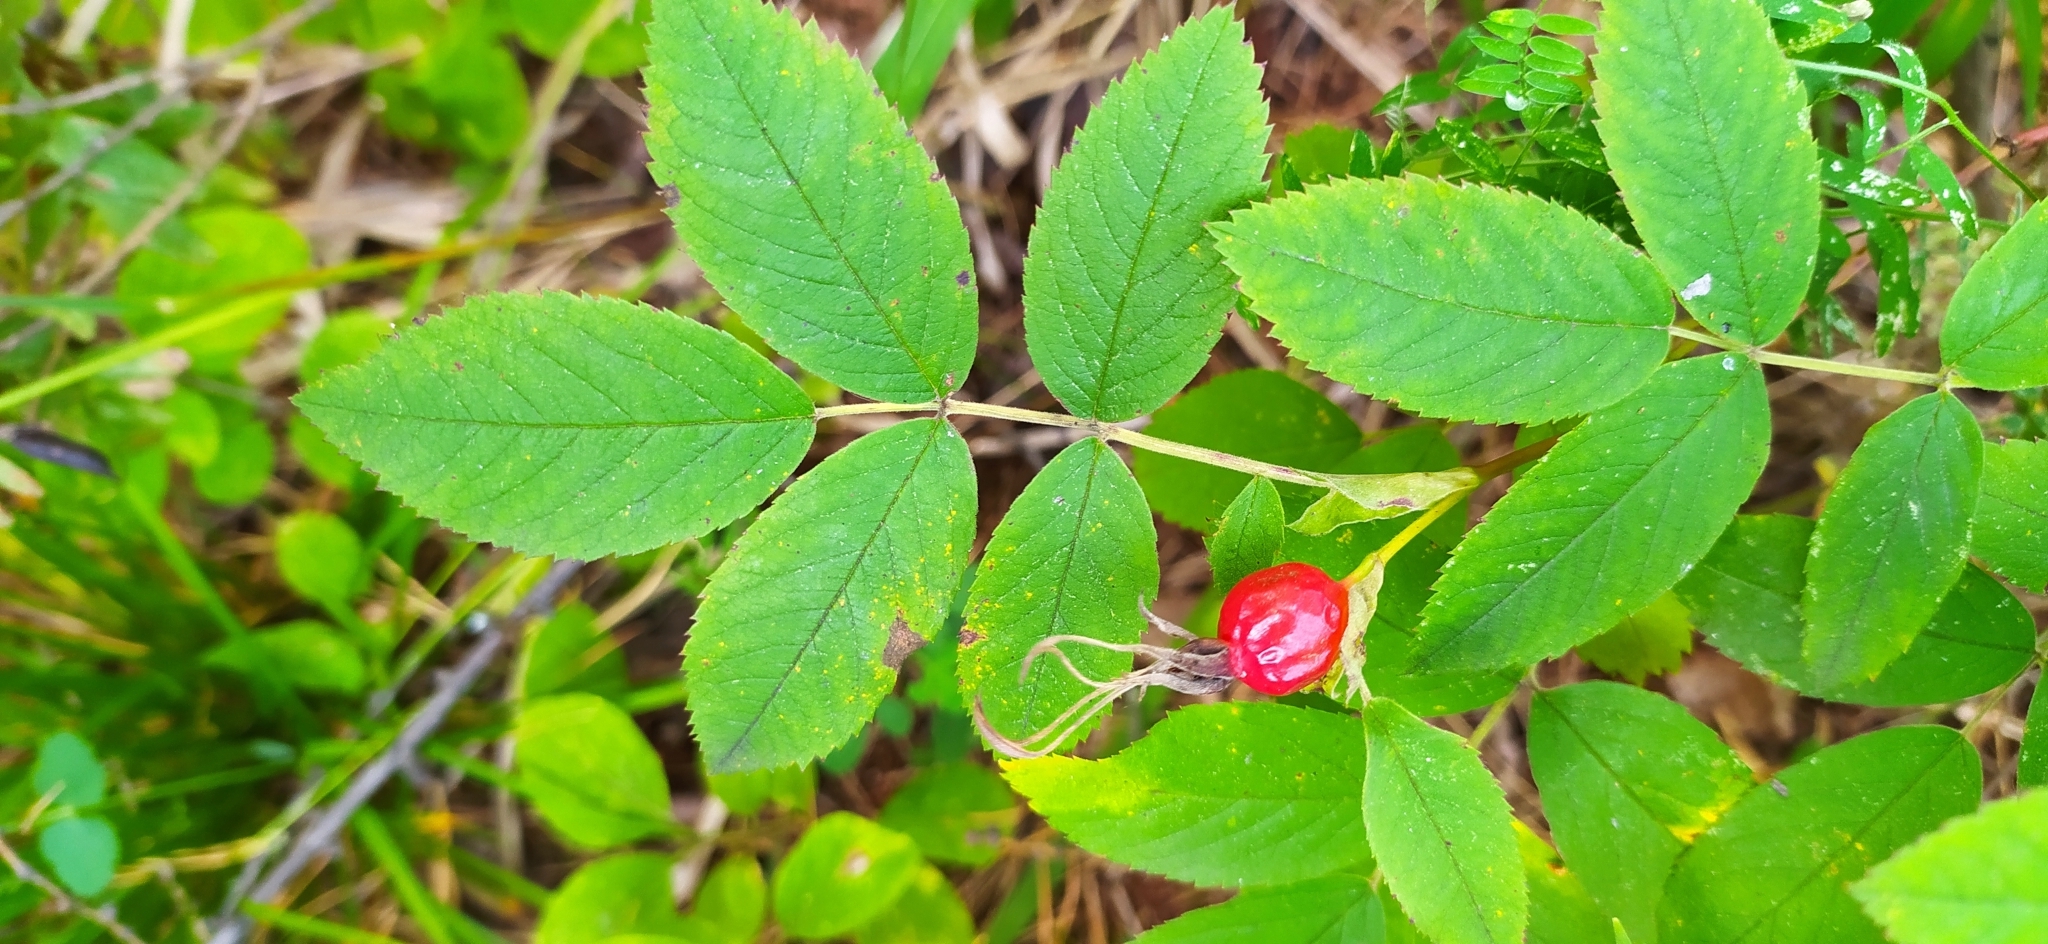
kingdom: Plantae
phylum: Tracheophyta
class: Magnoliopsida
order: Rosales
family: Rosaceae
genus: Rosa
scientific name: Rosa glabrifolia
